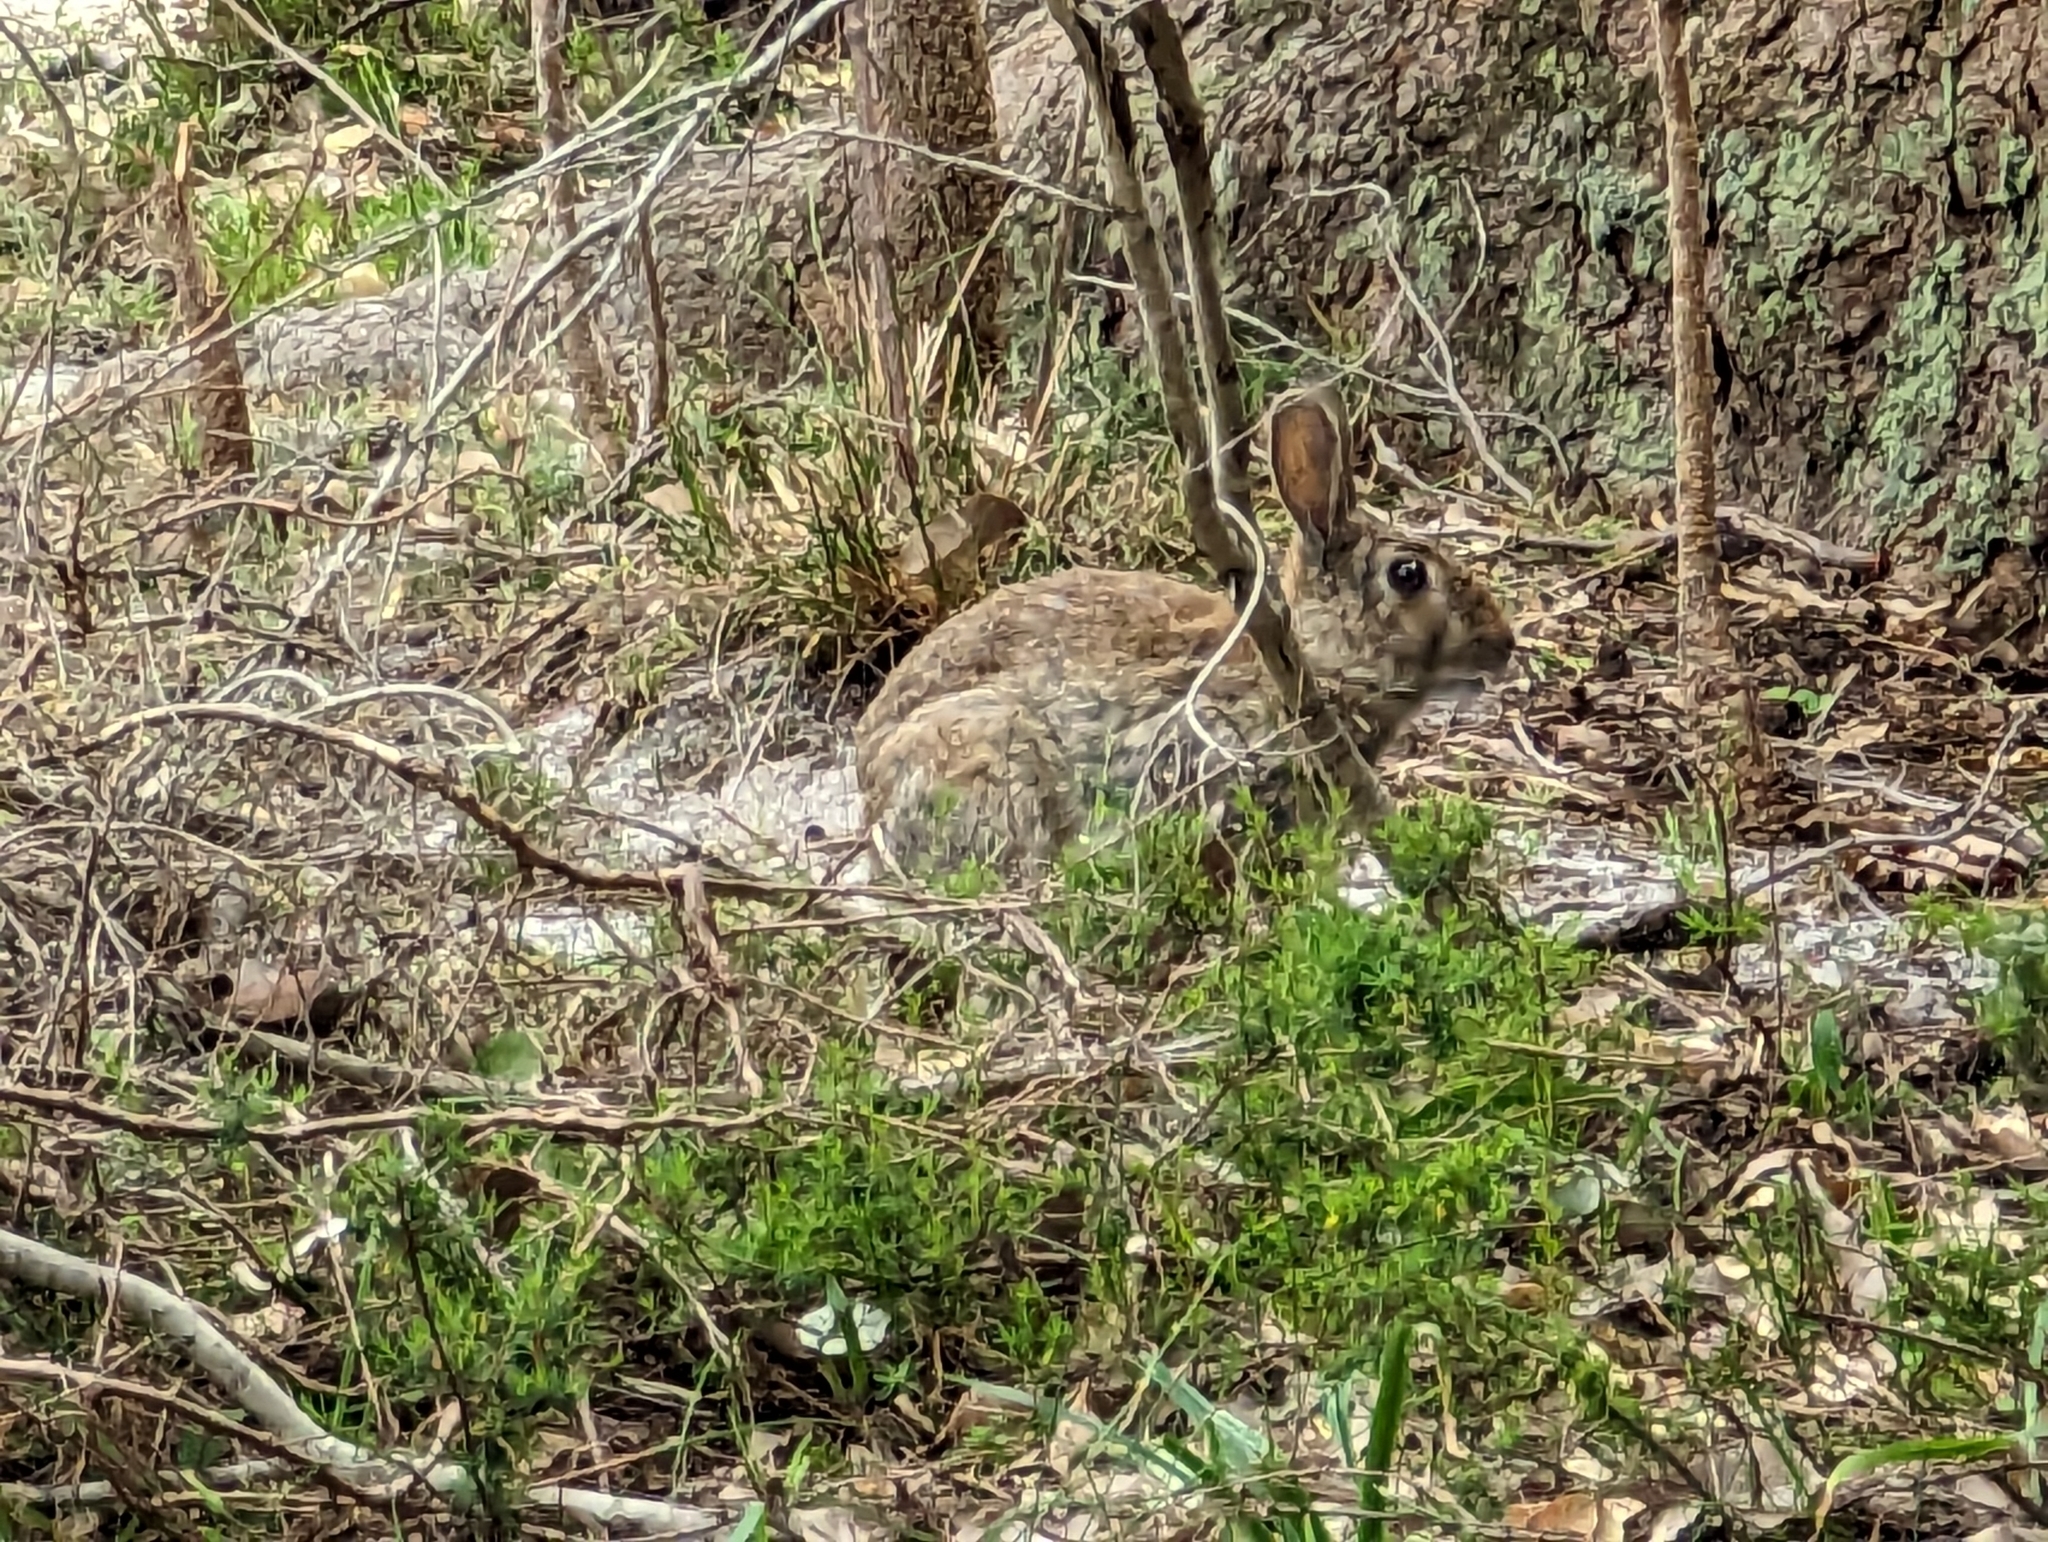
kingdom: Animalia
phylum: Chordata
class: Mammalia
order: Lagomorpha
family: Leporidae
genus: Oryctolagus
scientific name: Oryctolagus cuniculus
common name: European rabbit
